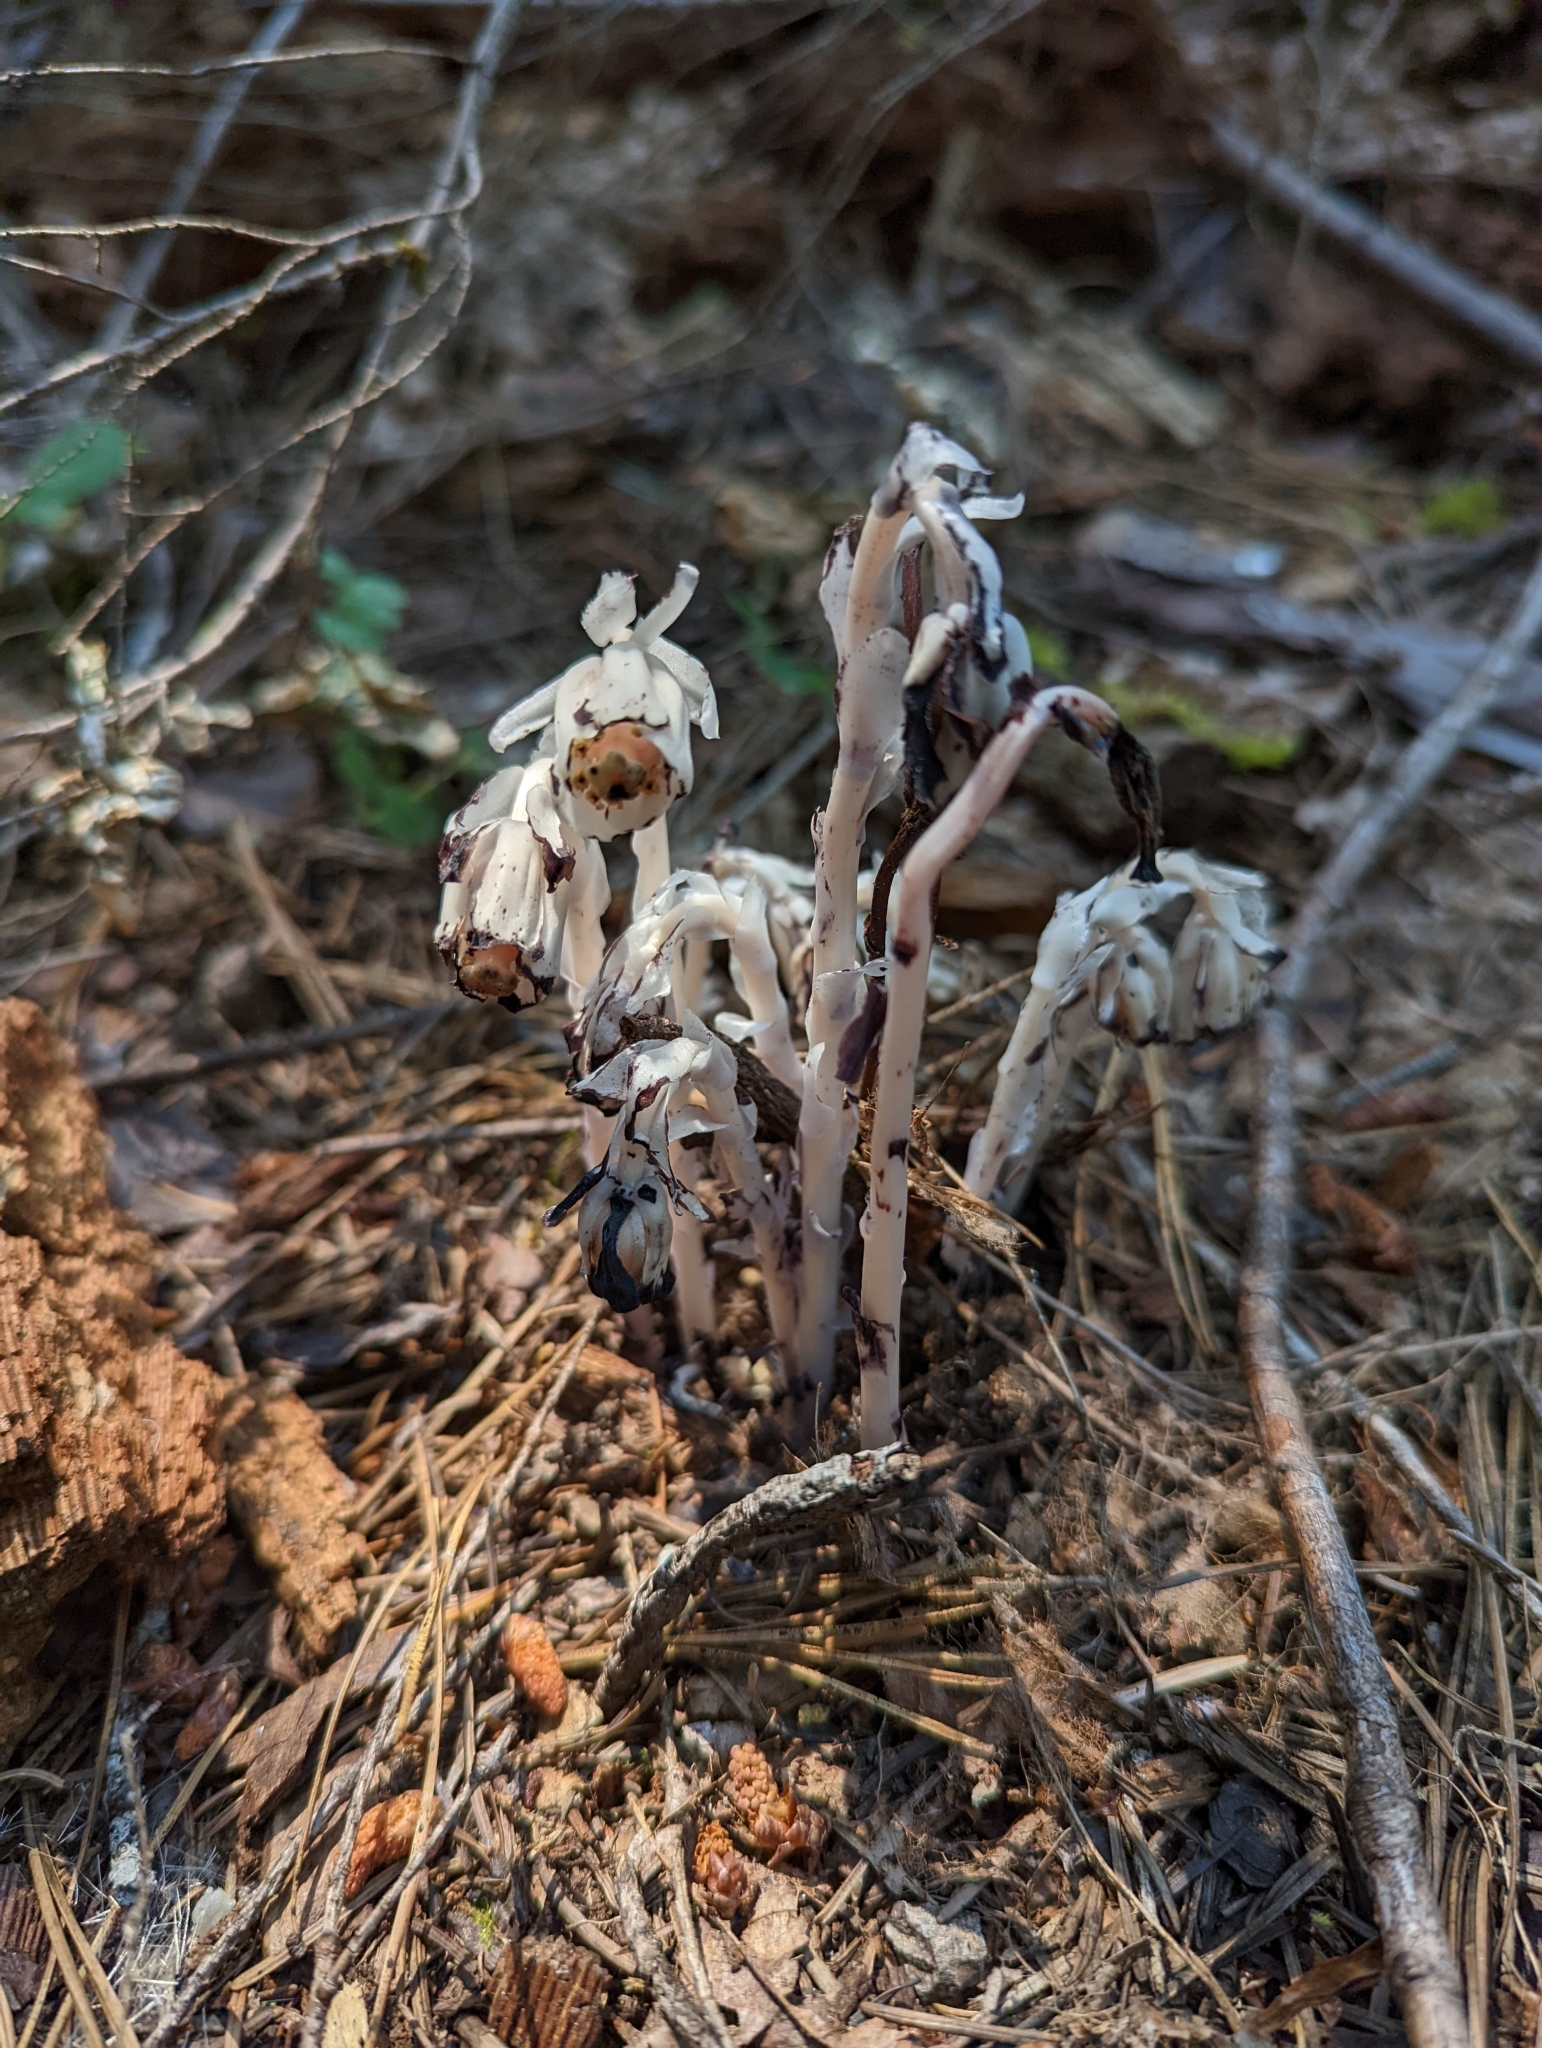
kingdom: Plantae
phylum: Tracheophyta
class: Magnoliopsida
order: Ericales
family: Ericaceae
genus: Monotropa
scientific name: Monotropa uniflora
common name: Convulsion root
